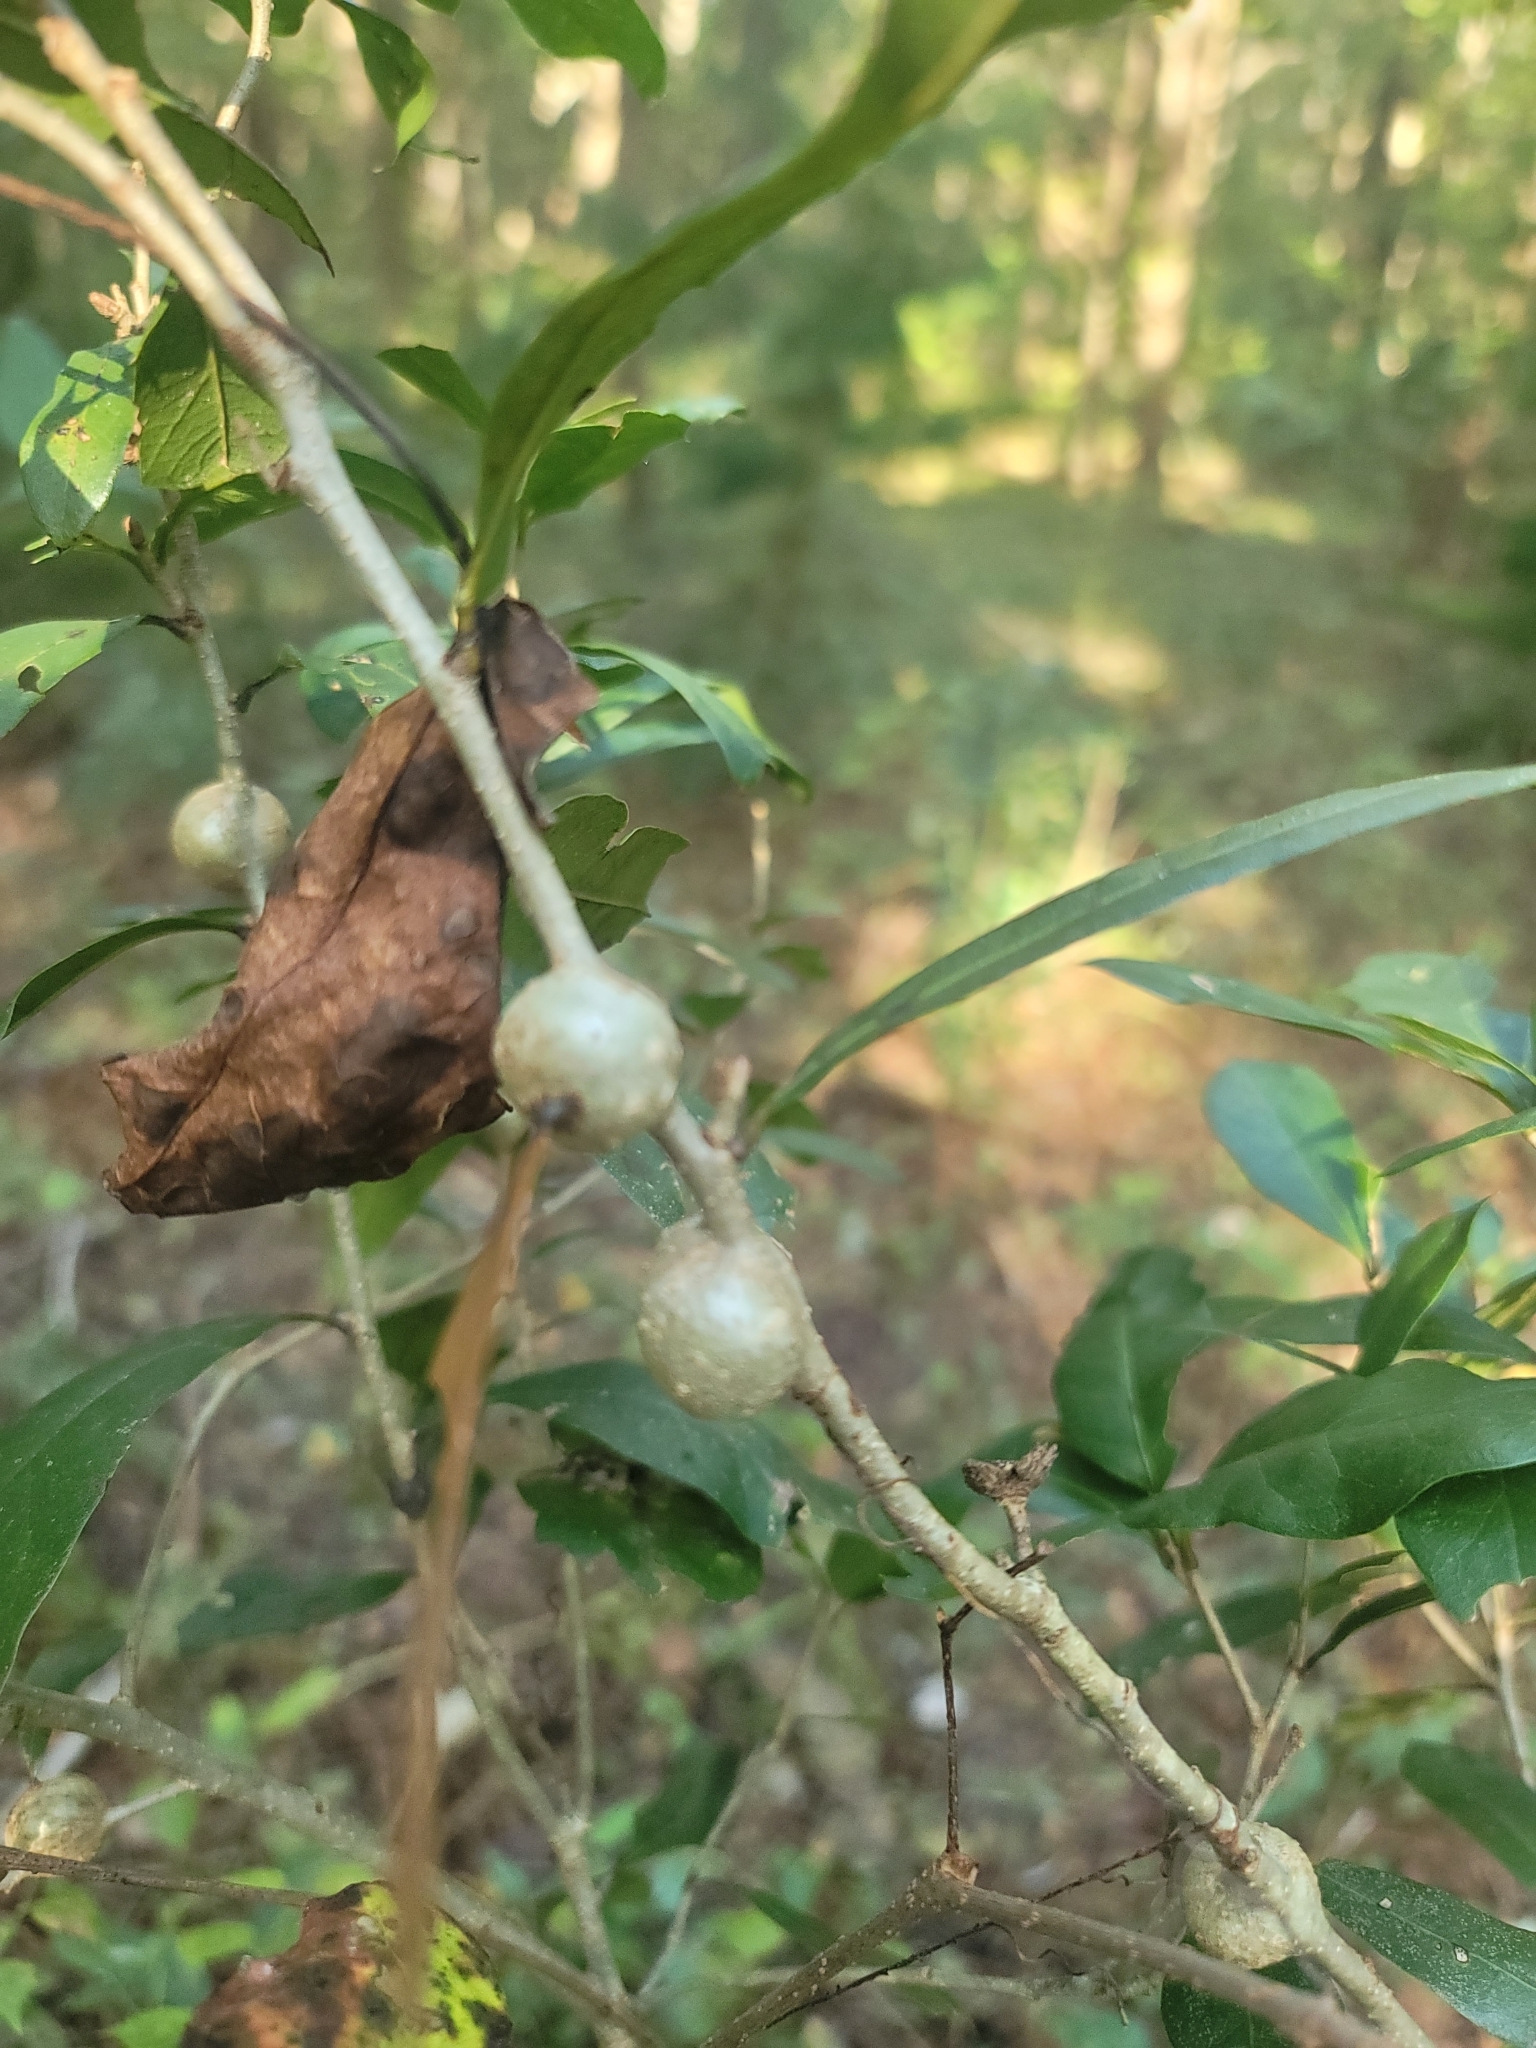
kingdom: Plantae
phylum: Tracheophyta
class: Magnoliopsida
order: Fagales
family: Fagaceae
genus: Quercus
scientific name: Quercus virginiana
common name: Southern live oak
